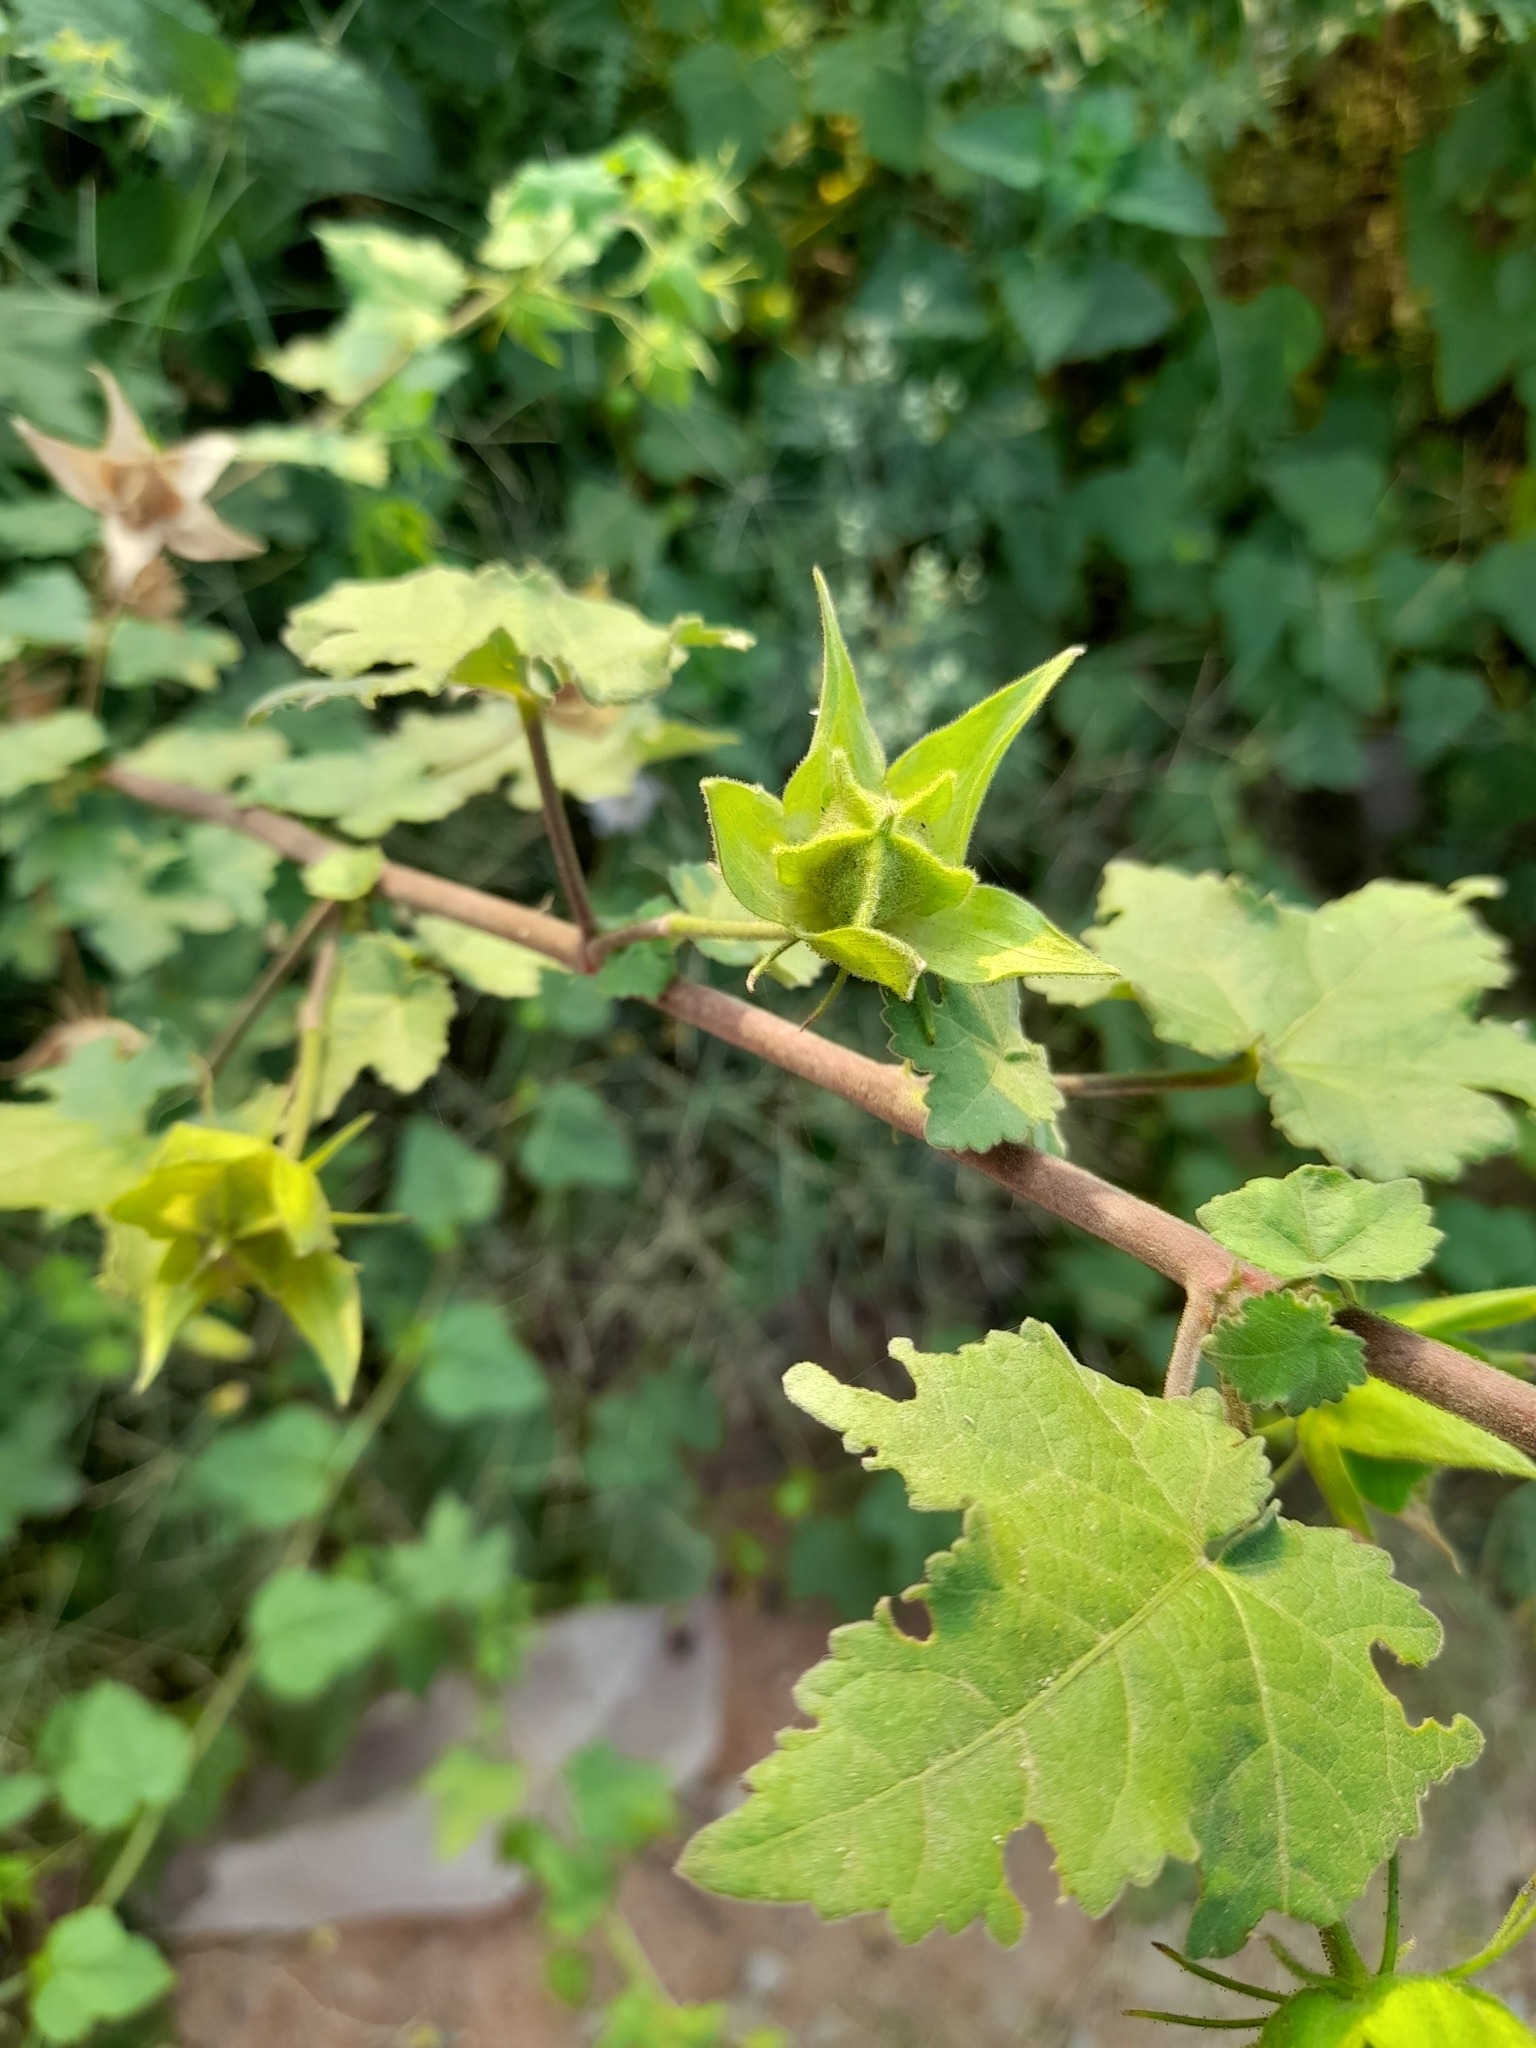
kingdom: Plantae
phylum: Tracheophyta
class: Magnoliopsida
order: Malvales
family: Malvaceae
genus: Hibiscus
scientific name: Hibiscus vitifolius
